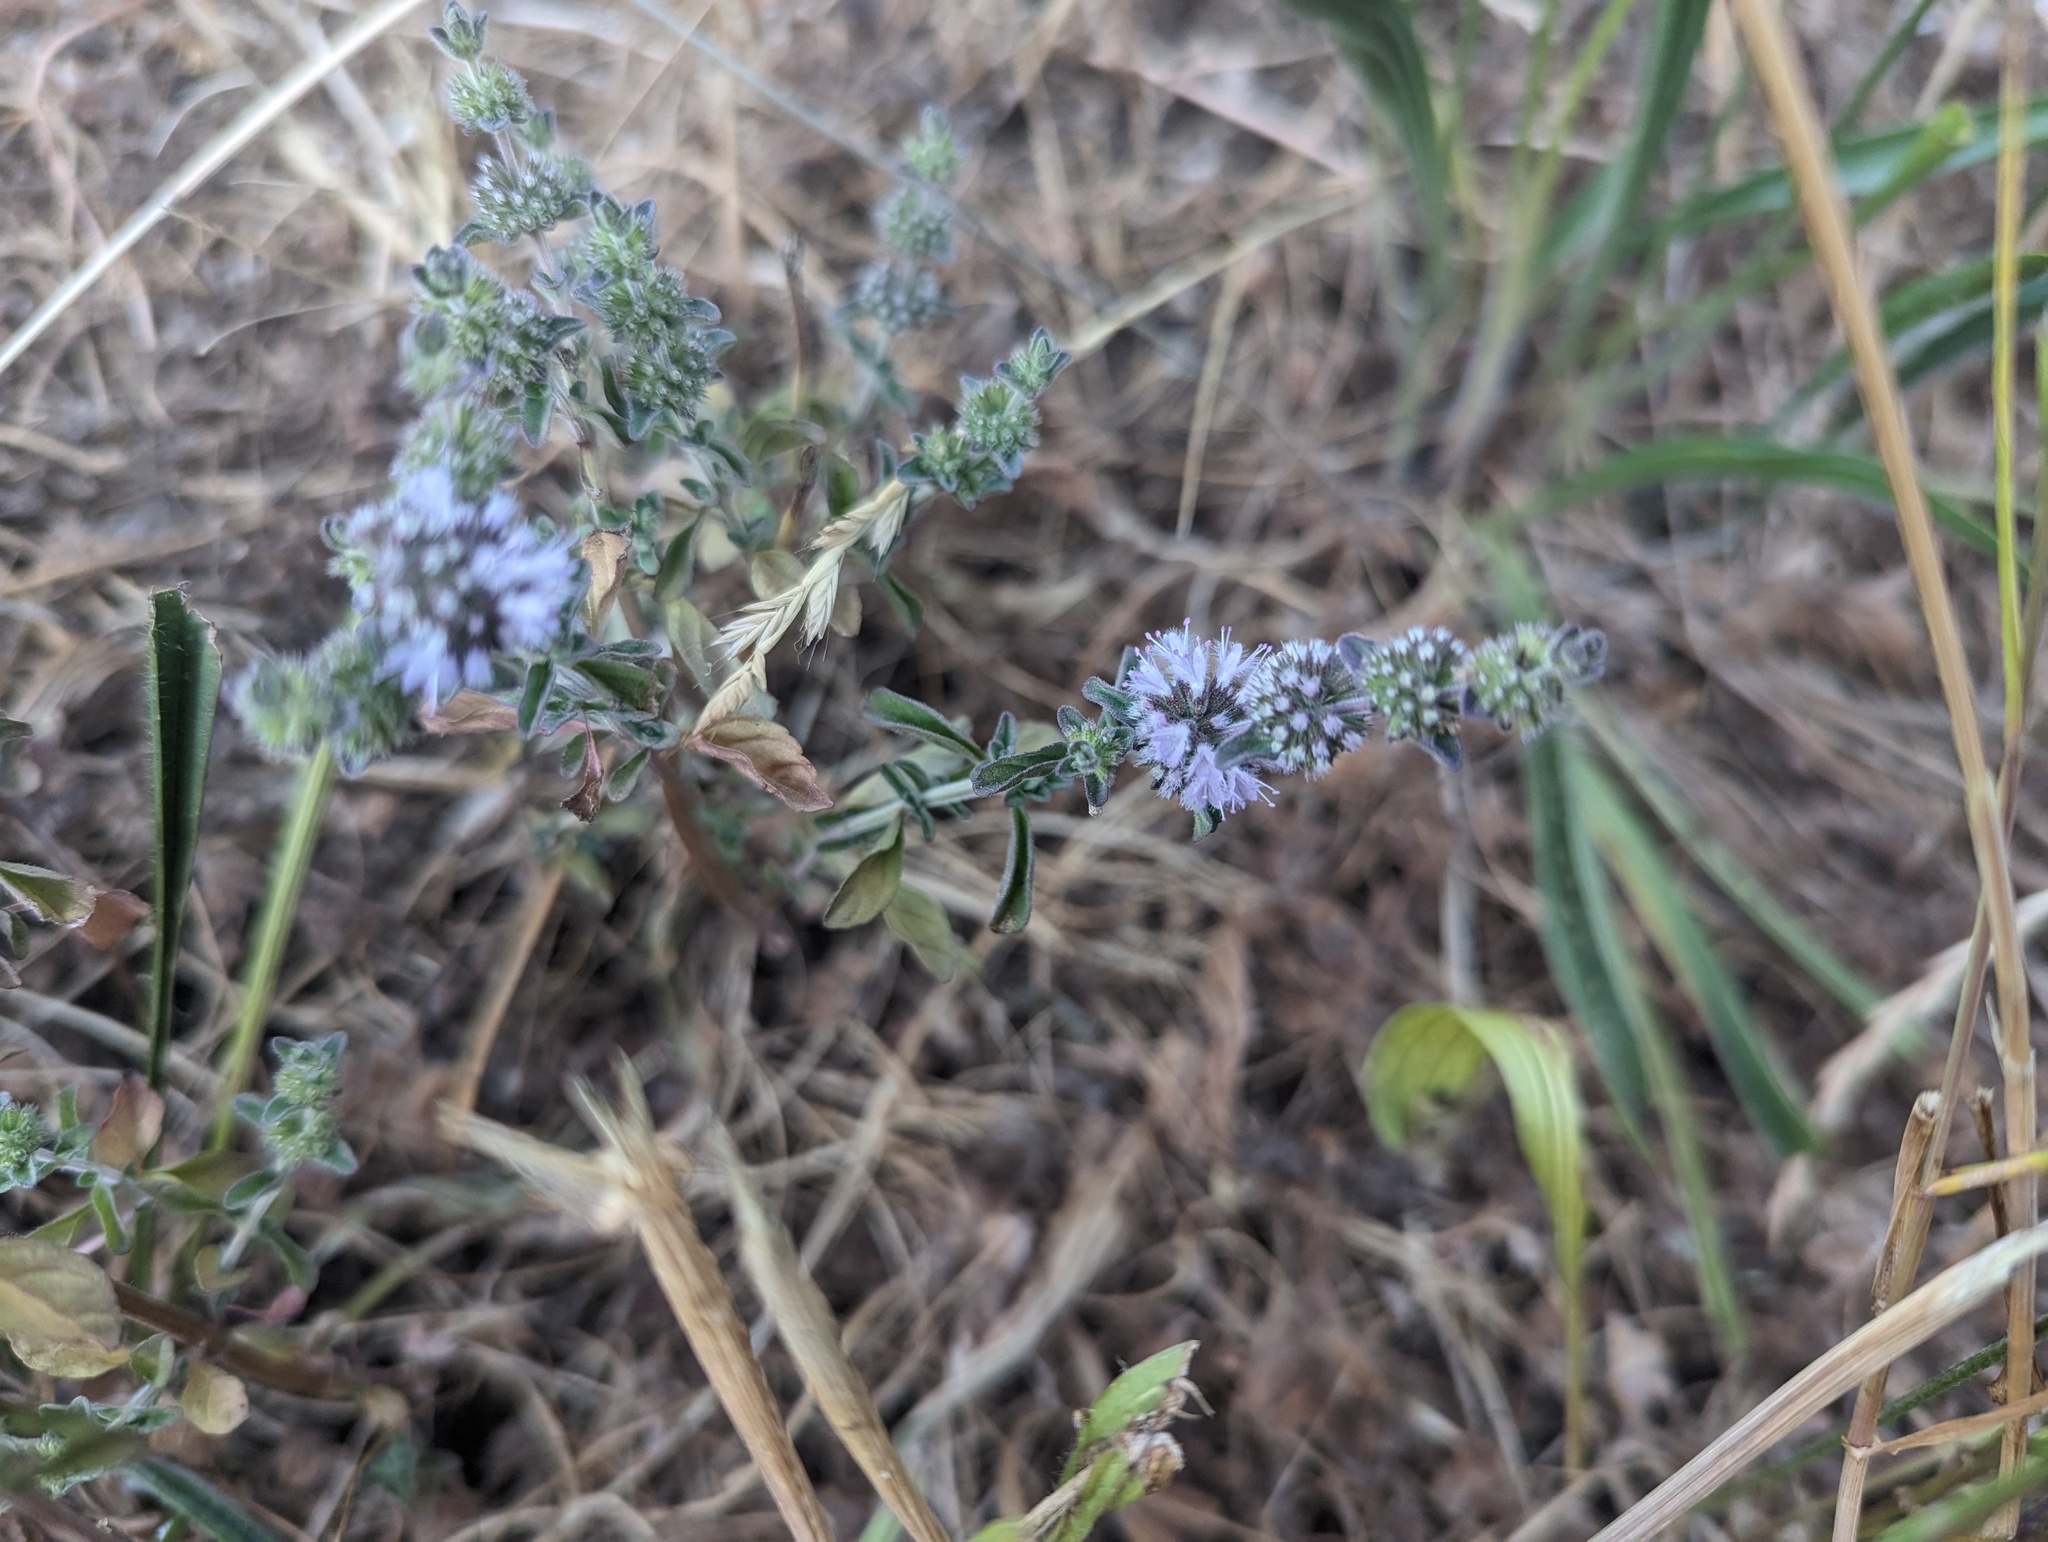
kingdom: Plantae
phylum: Tracheophyta
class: Magnoliopsida
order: Lamiales
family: Lamiaceae
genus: Mentha
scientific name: Mentha pulegium
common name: Pennyroyal
